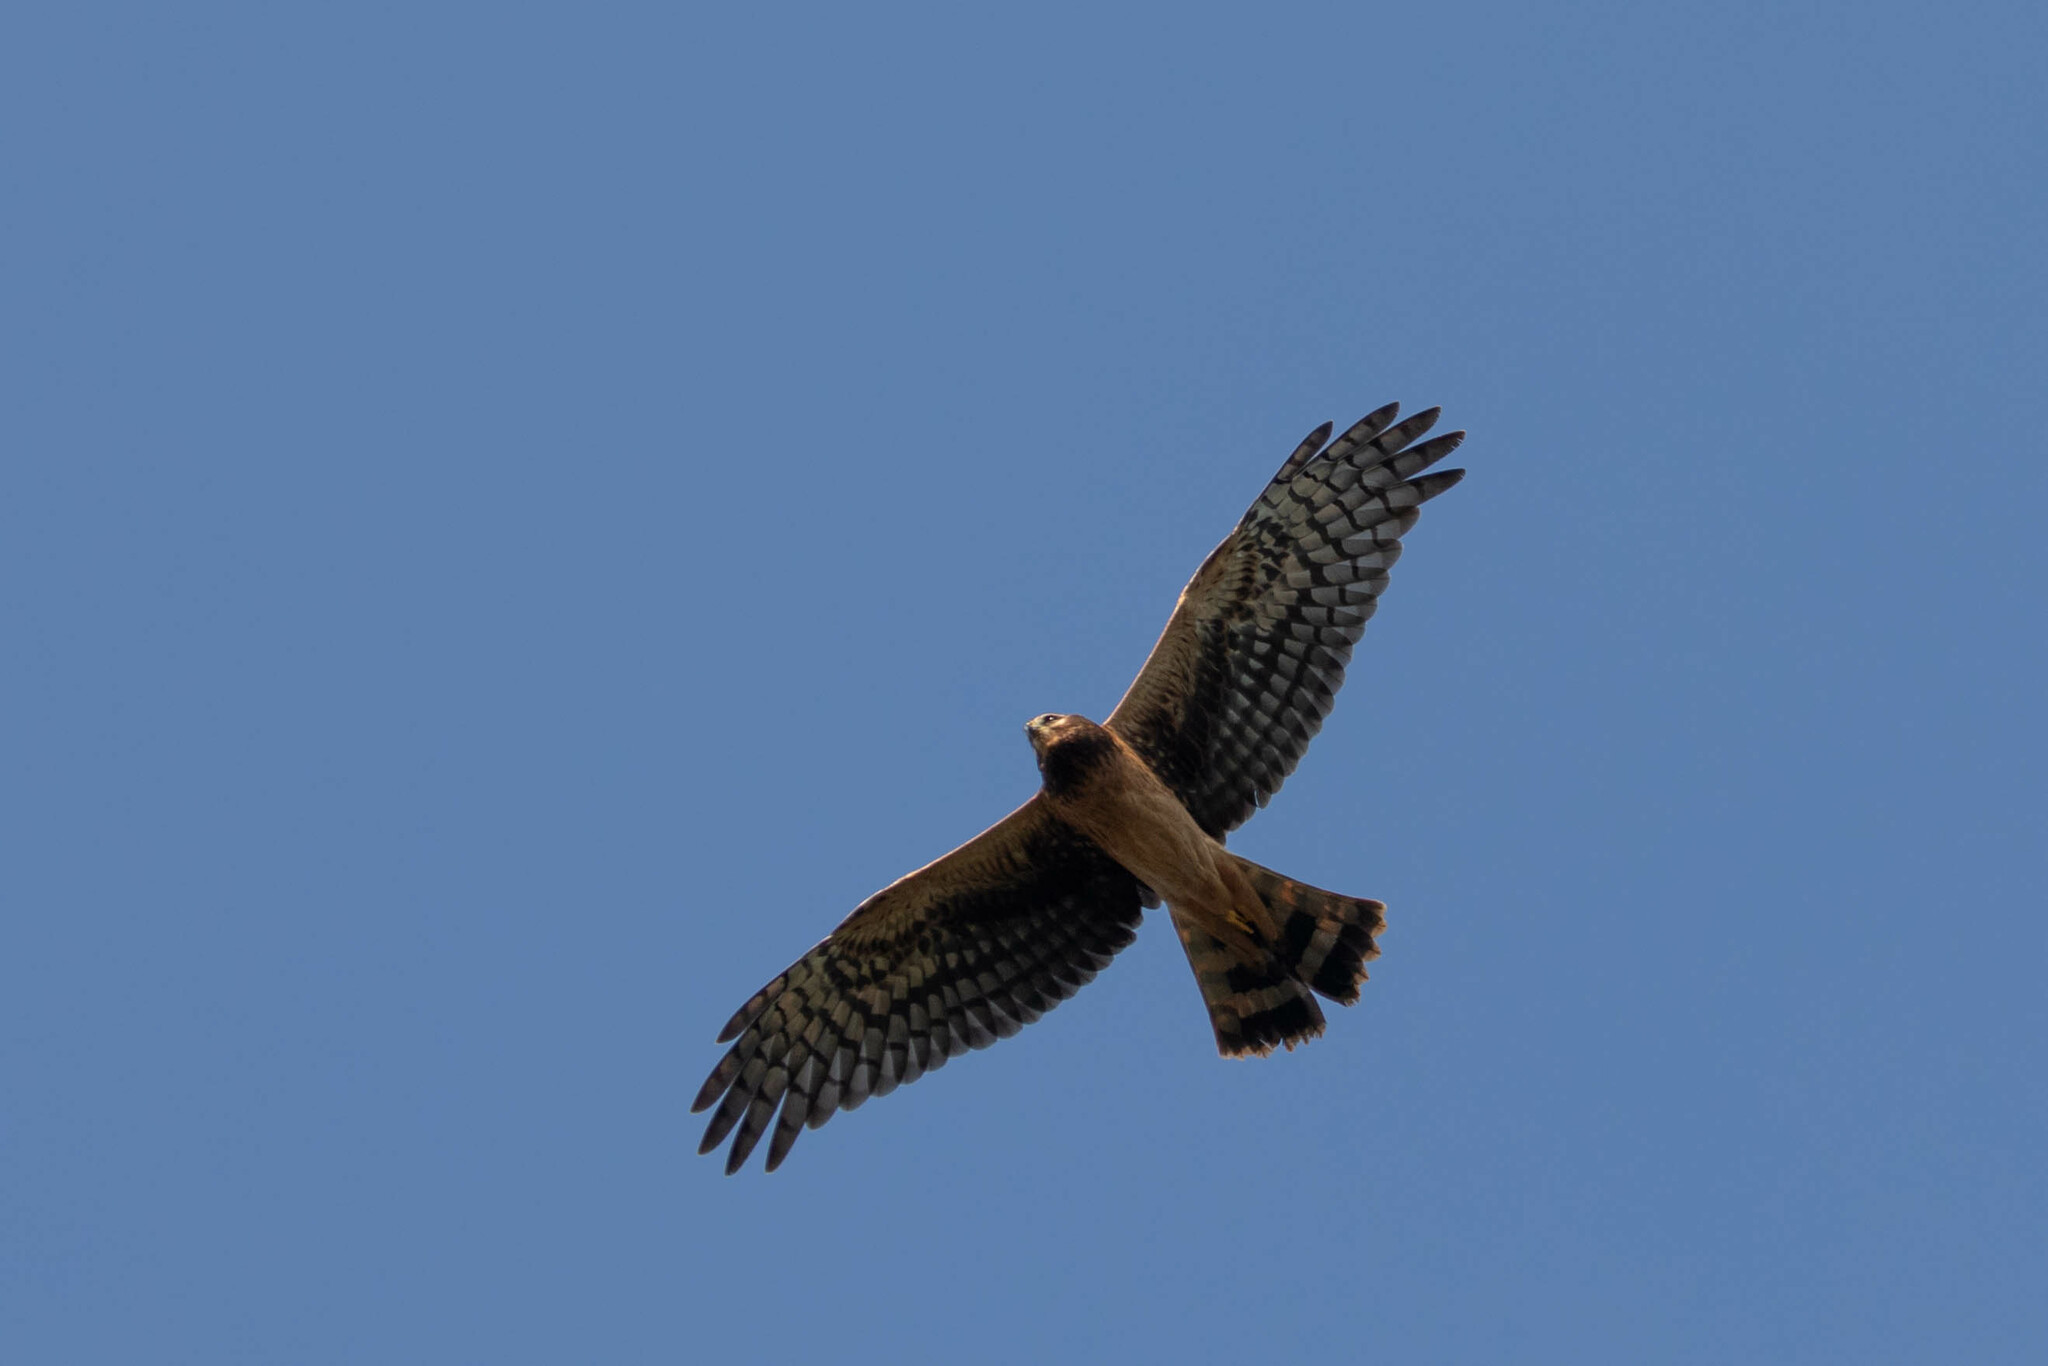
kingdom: Animalia
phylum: Chordata
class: Aves
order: Accipitriformes
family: Accipitridae
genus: Circus
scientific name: Circus cyaneus
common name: Hen harrier
